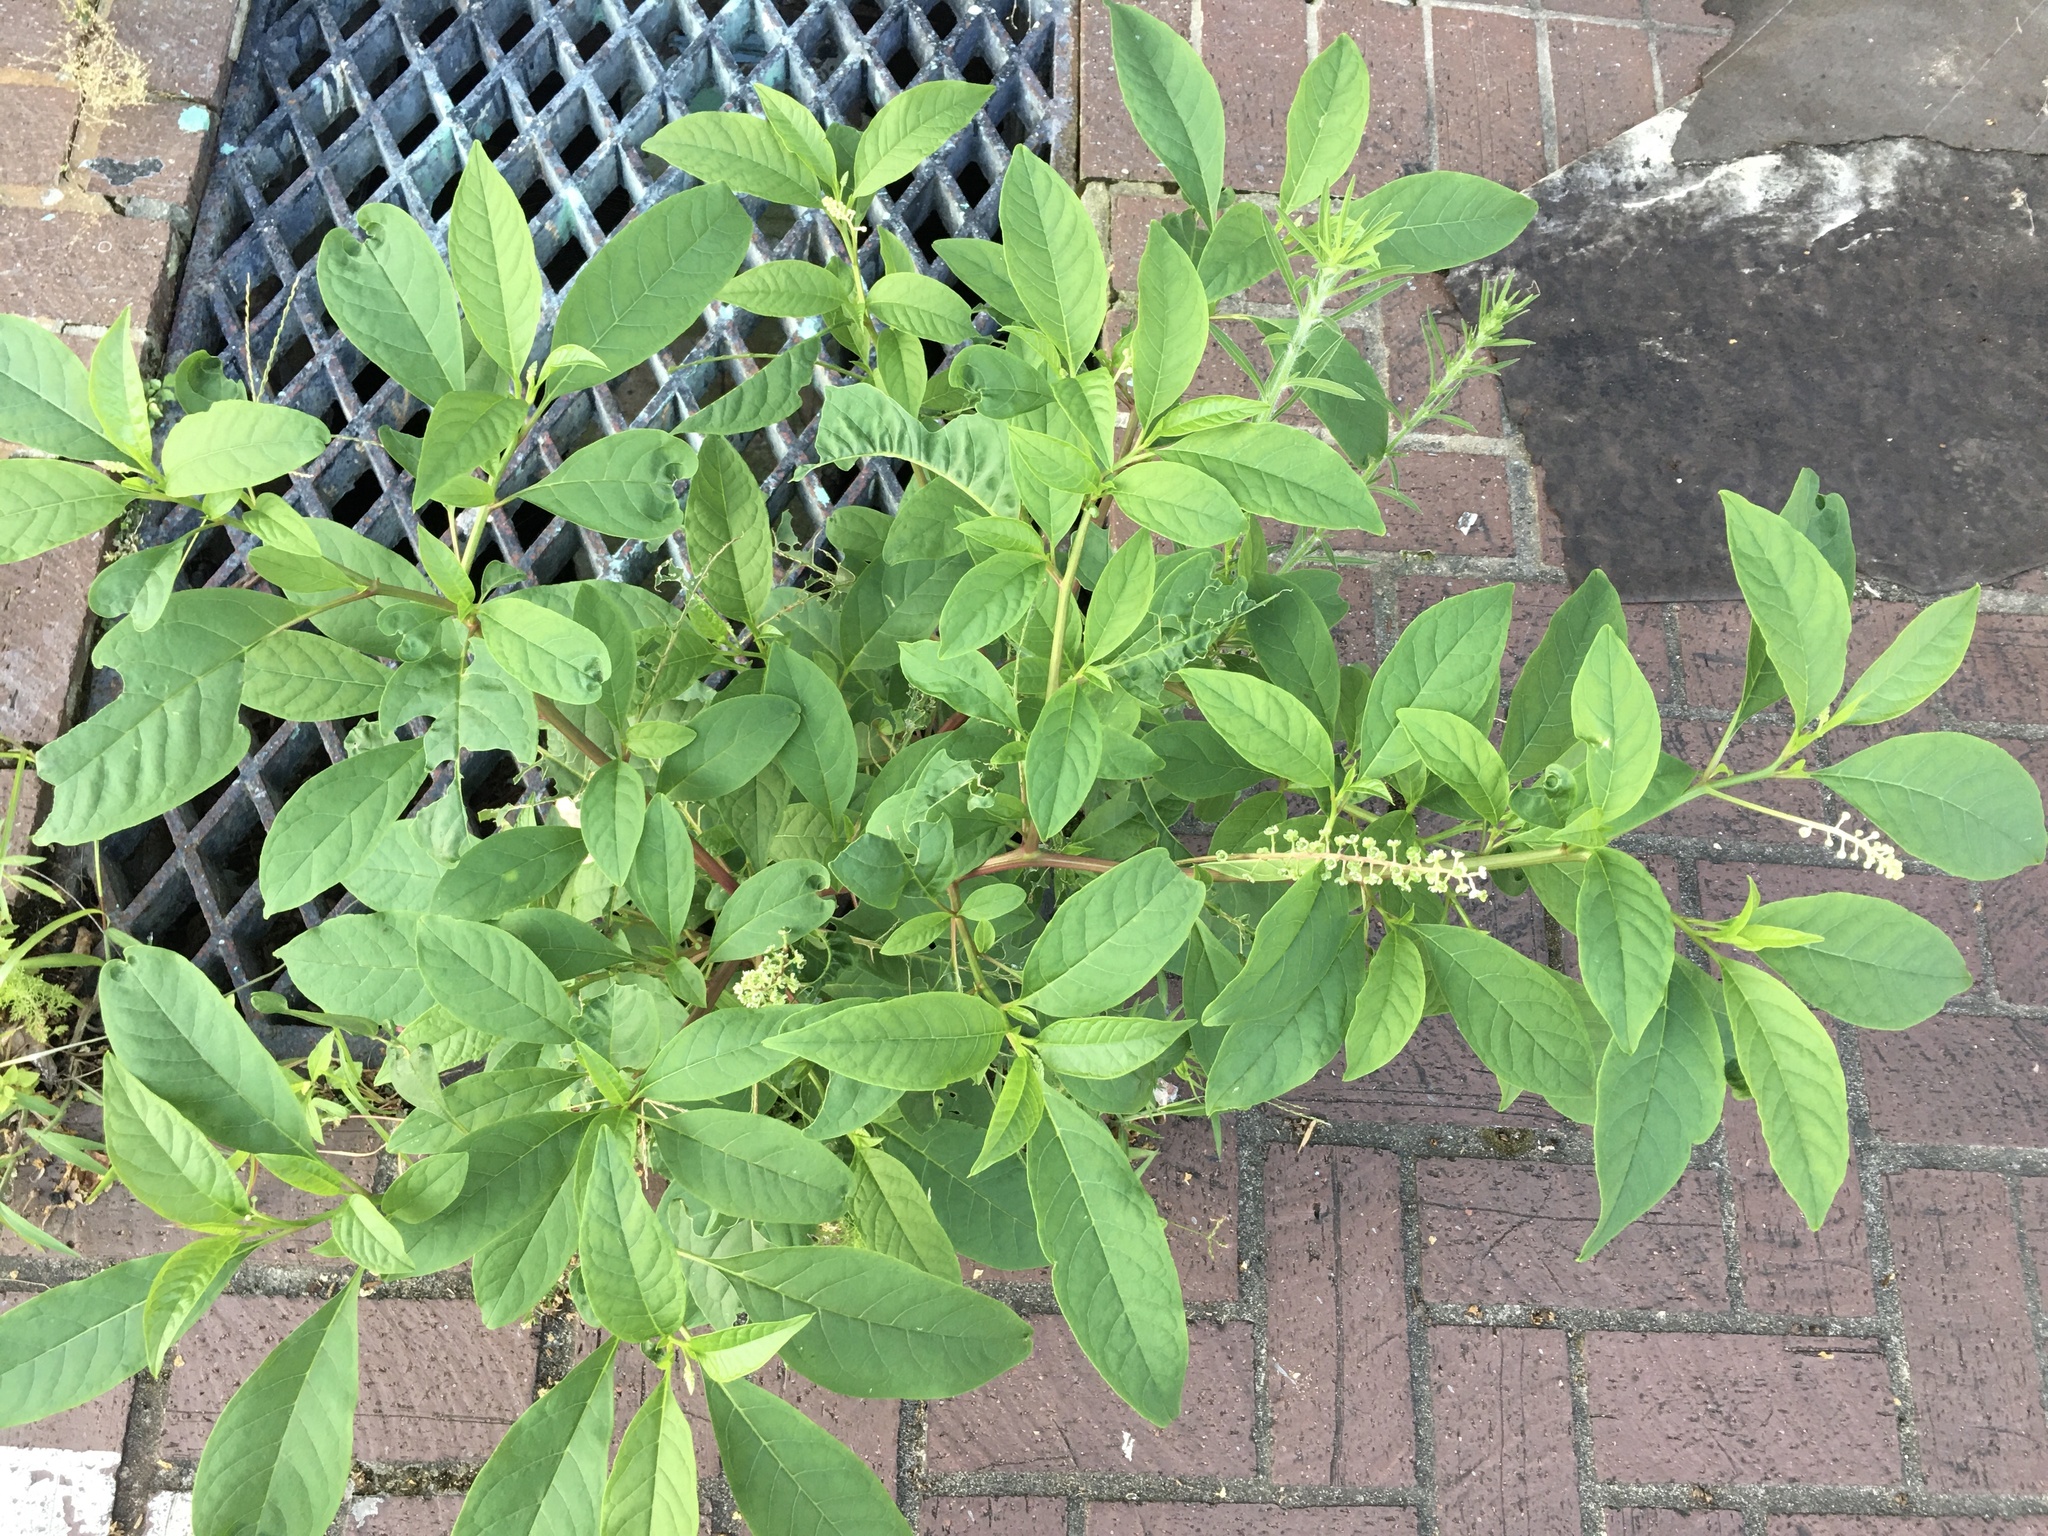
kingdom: Plantae
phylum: Tracheophyta
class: Magnoliopsida
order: Caryophyllales
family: Phytolaccaceae
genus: Phytolacca
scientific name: Phytolacca americana
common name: American pokeweed
